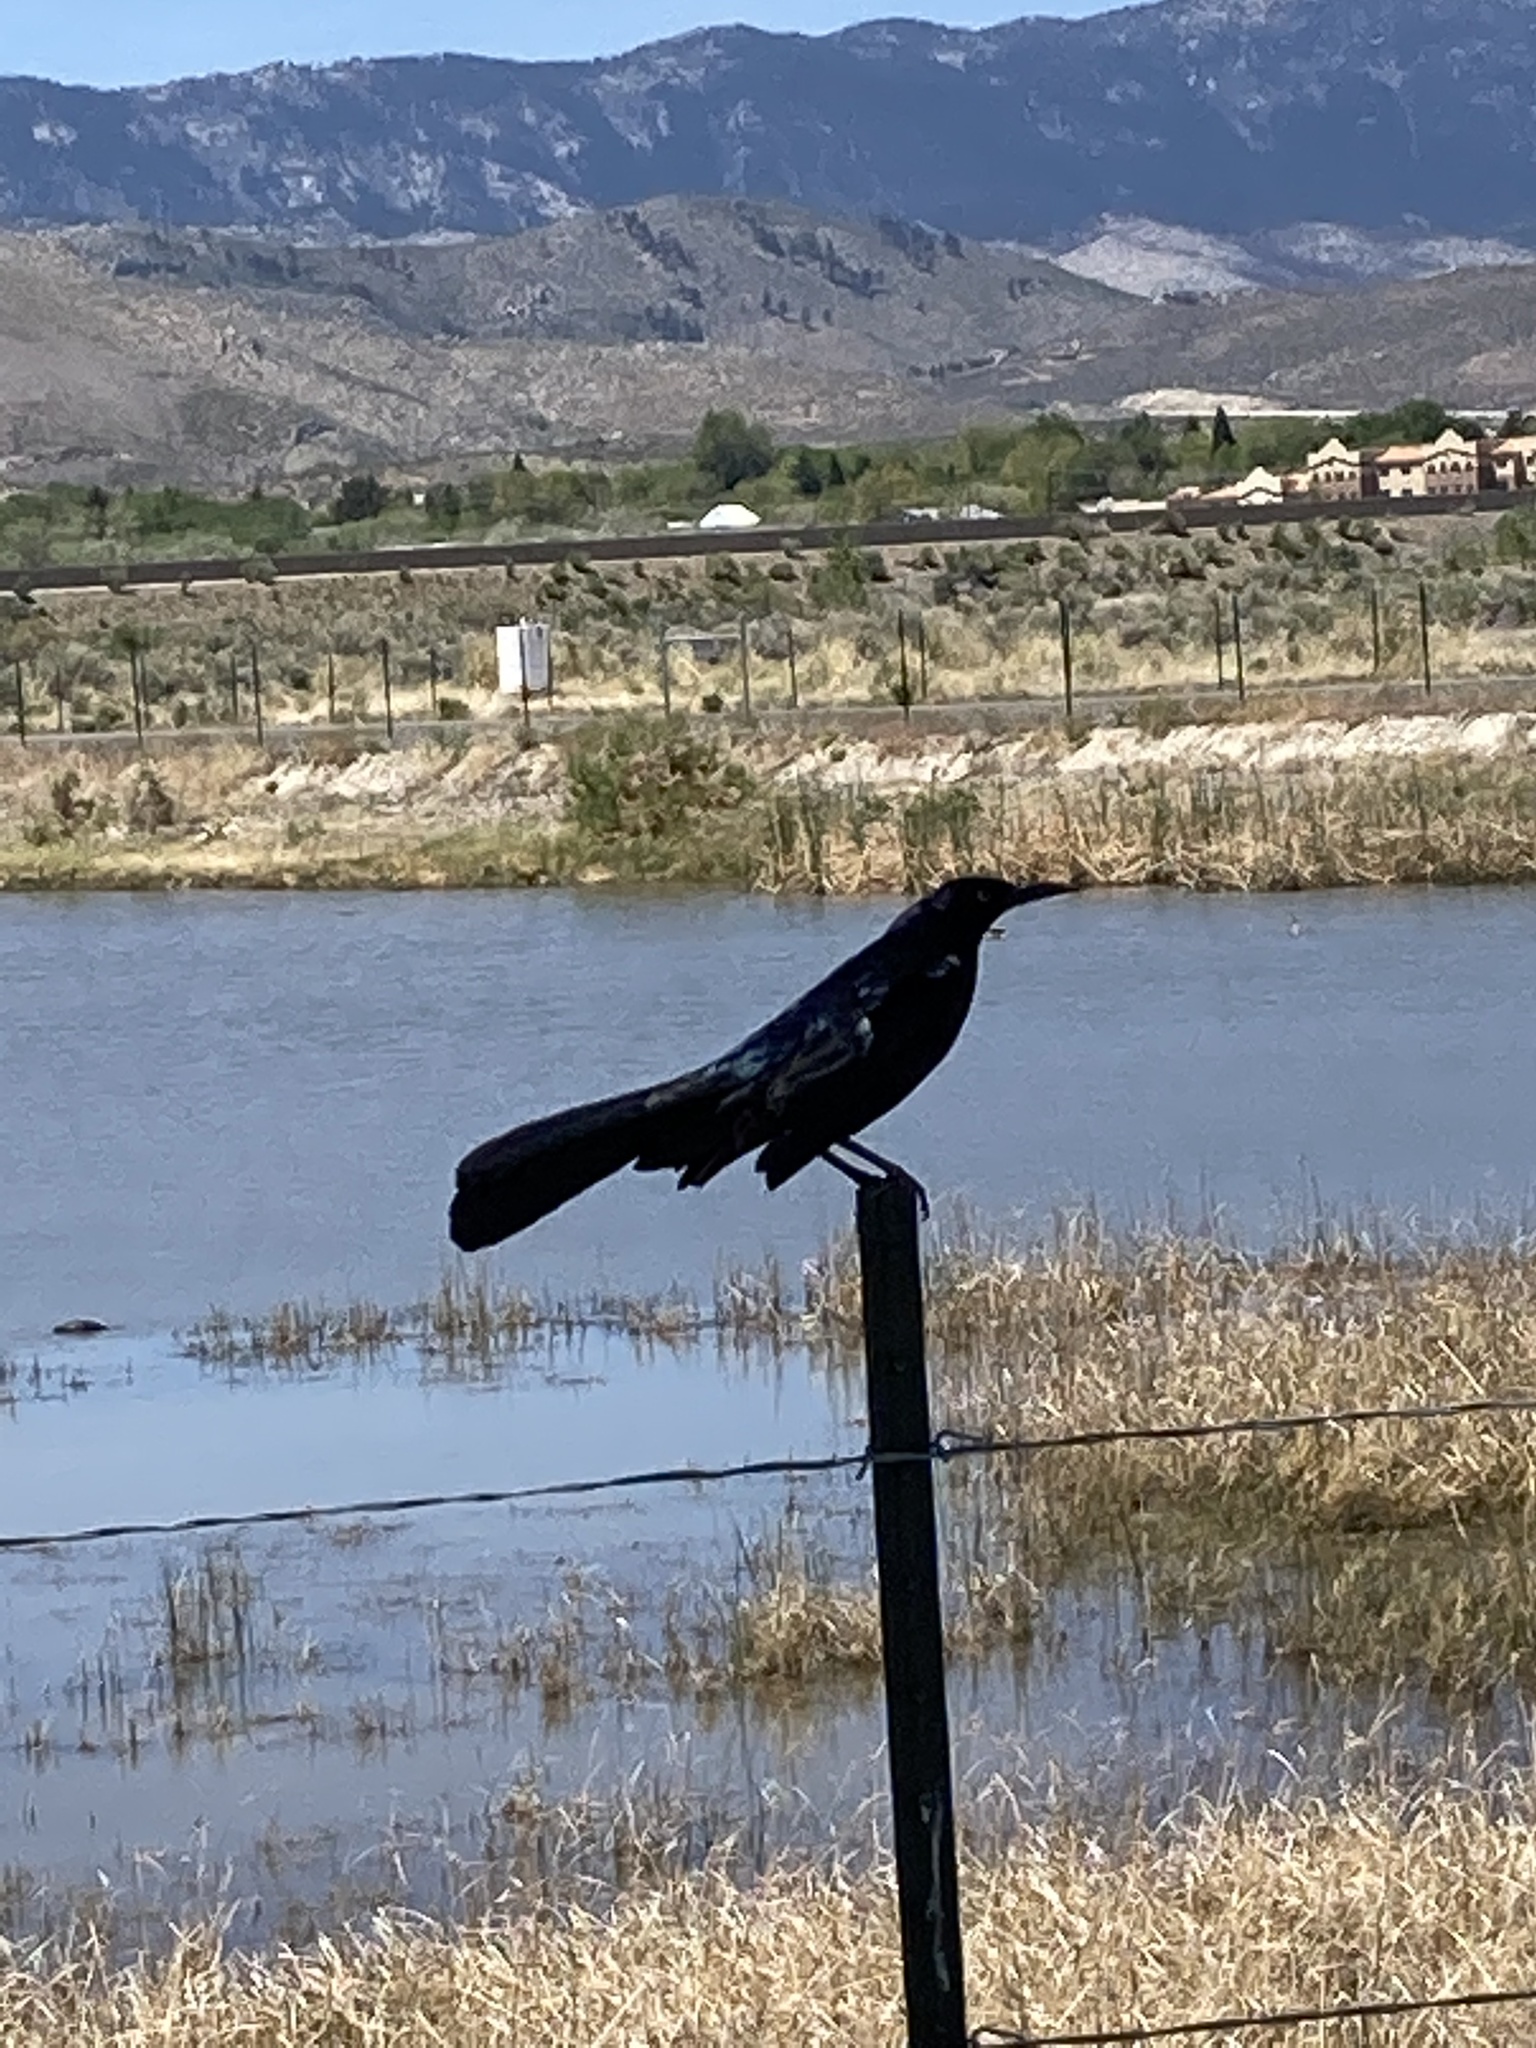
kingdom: Animalia
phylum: Chordata
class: Aves
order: Passeriformes
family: Icteridae
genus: Quiscalus
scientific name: Quiscalus mexicanus
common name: Great-tailed grackle
